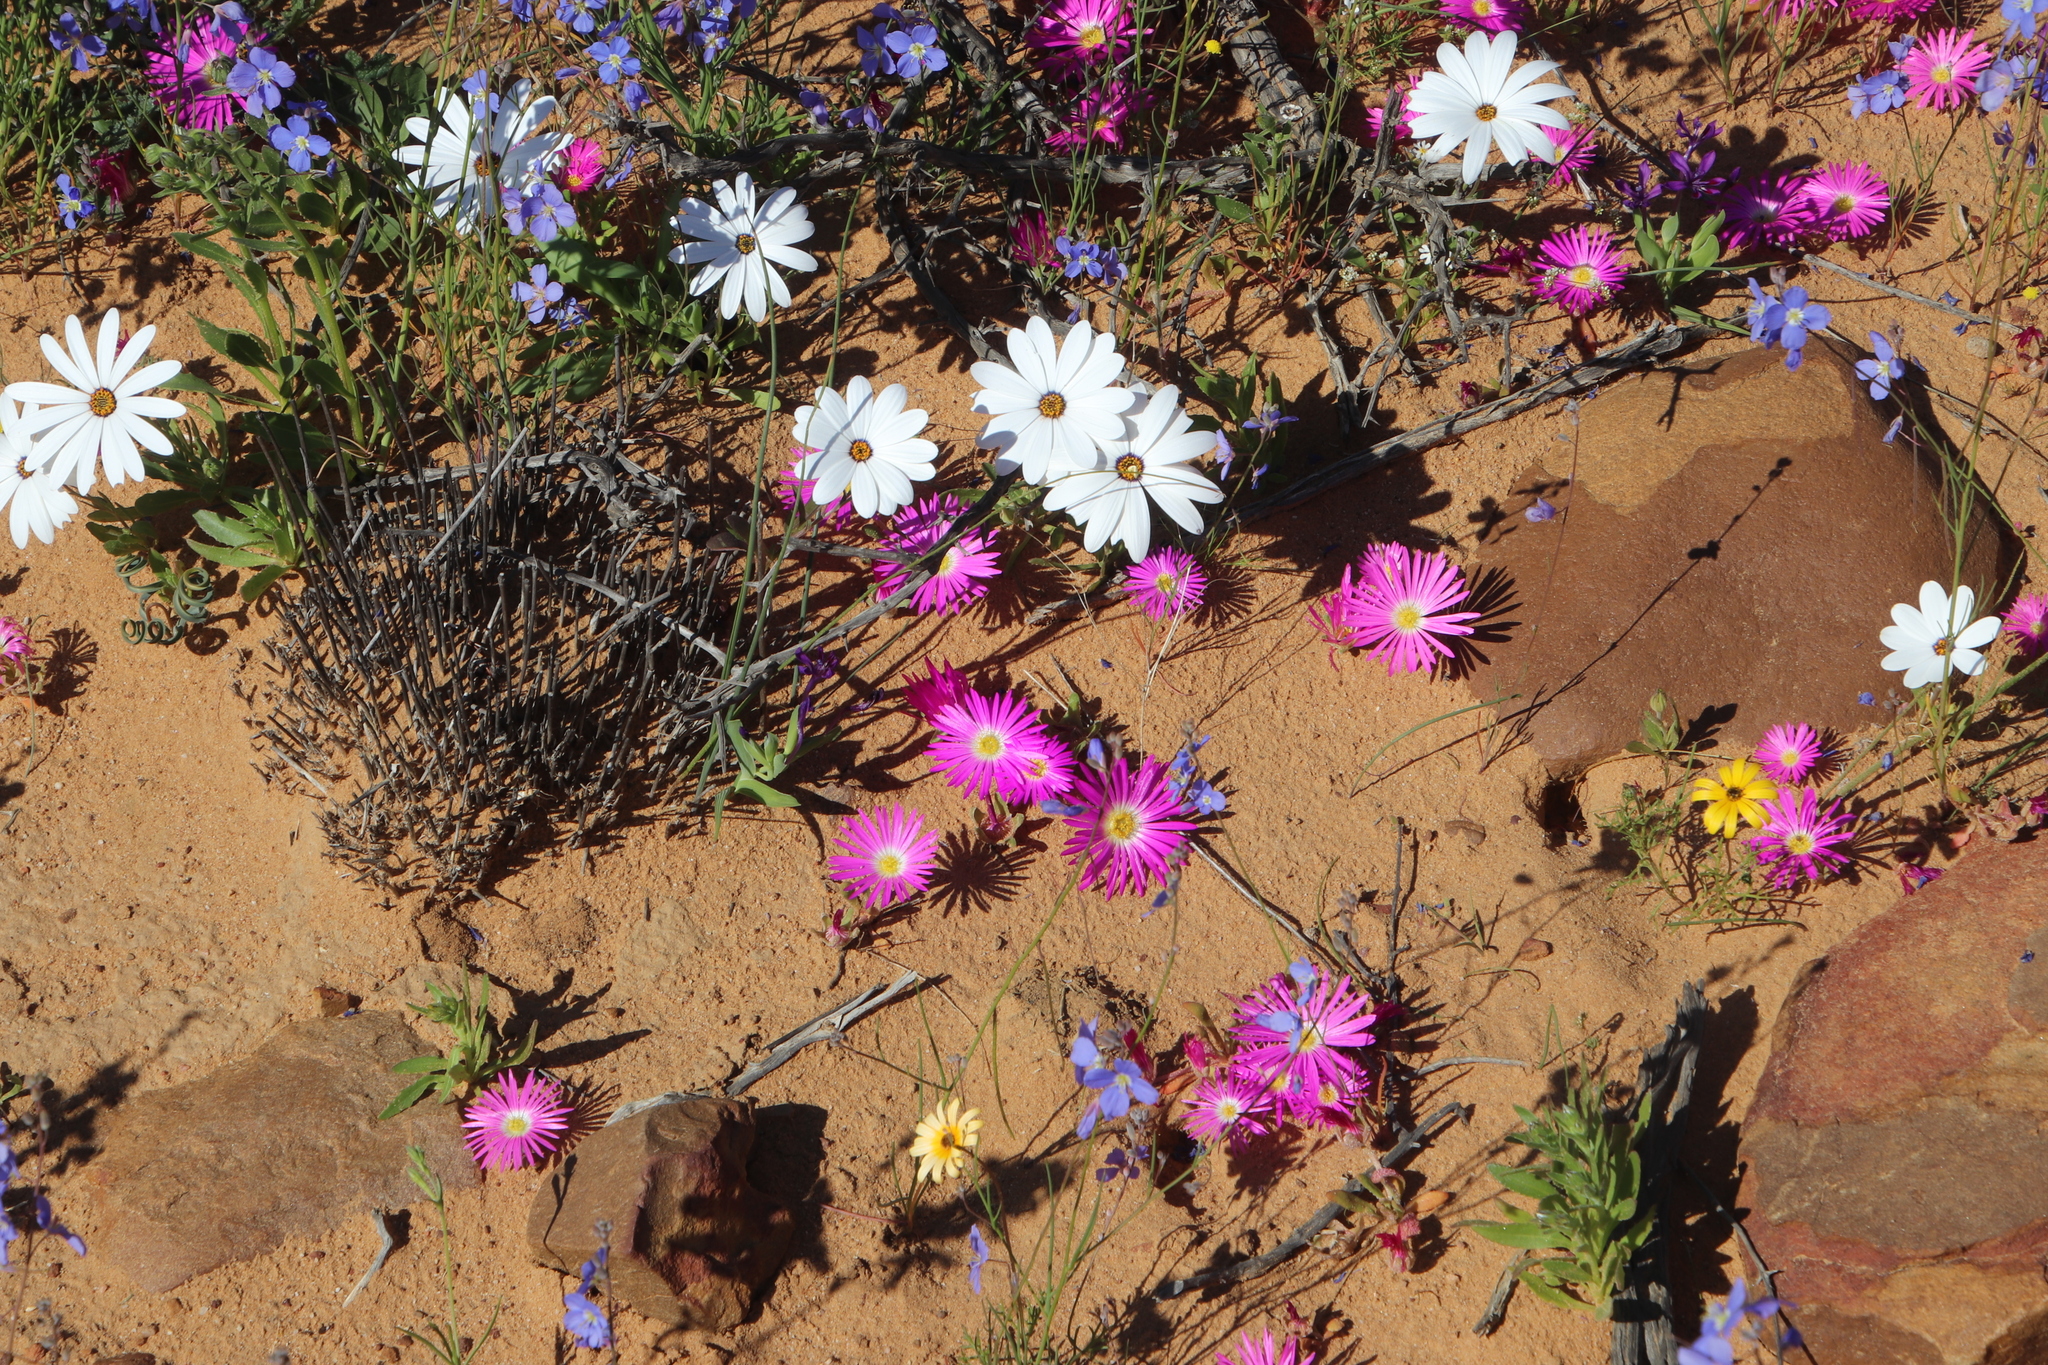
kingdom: Plantae
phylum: Tracheophyta
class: Magnoliopsida
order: Caryophyllales
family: Aizoaceae
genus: Cleretum
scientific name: Cleretum bellidiforme
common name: Livingstone daisy
